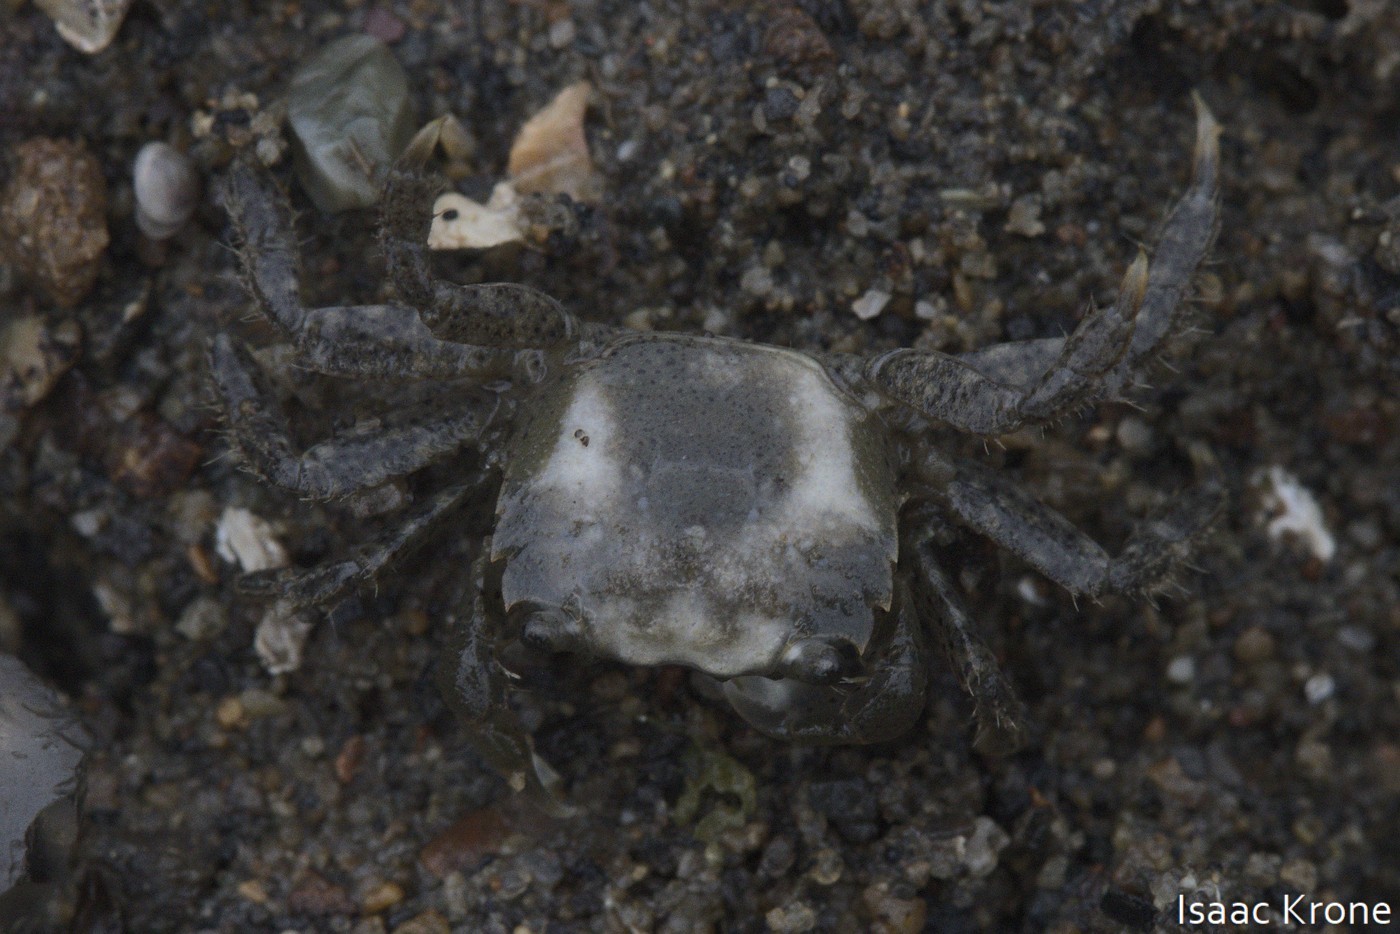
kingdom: Animalia
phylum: Arthropoda
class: Malacostraca
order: Decapoda
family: Varunidae
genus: Hemigrapsus
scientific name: Hemigrapsus oregonensis
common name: Yellow shore crab
